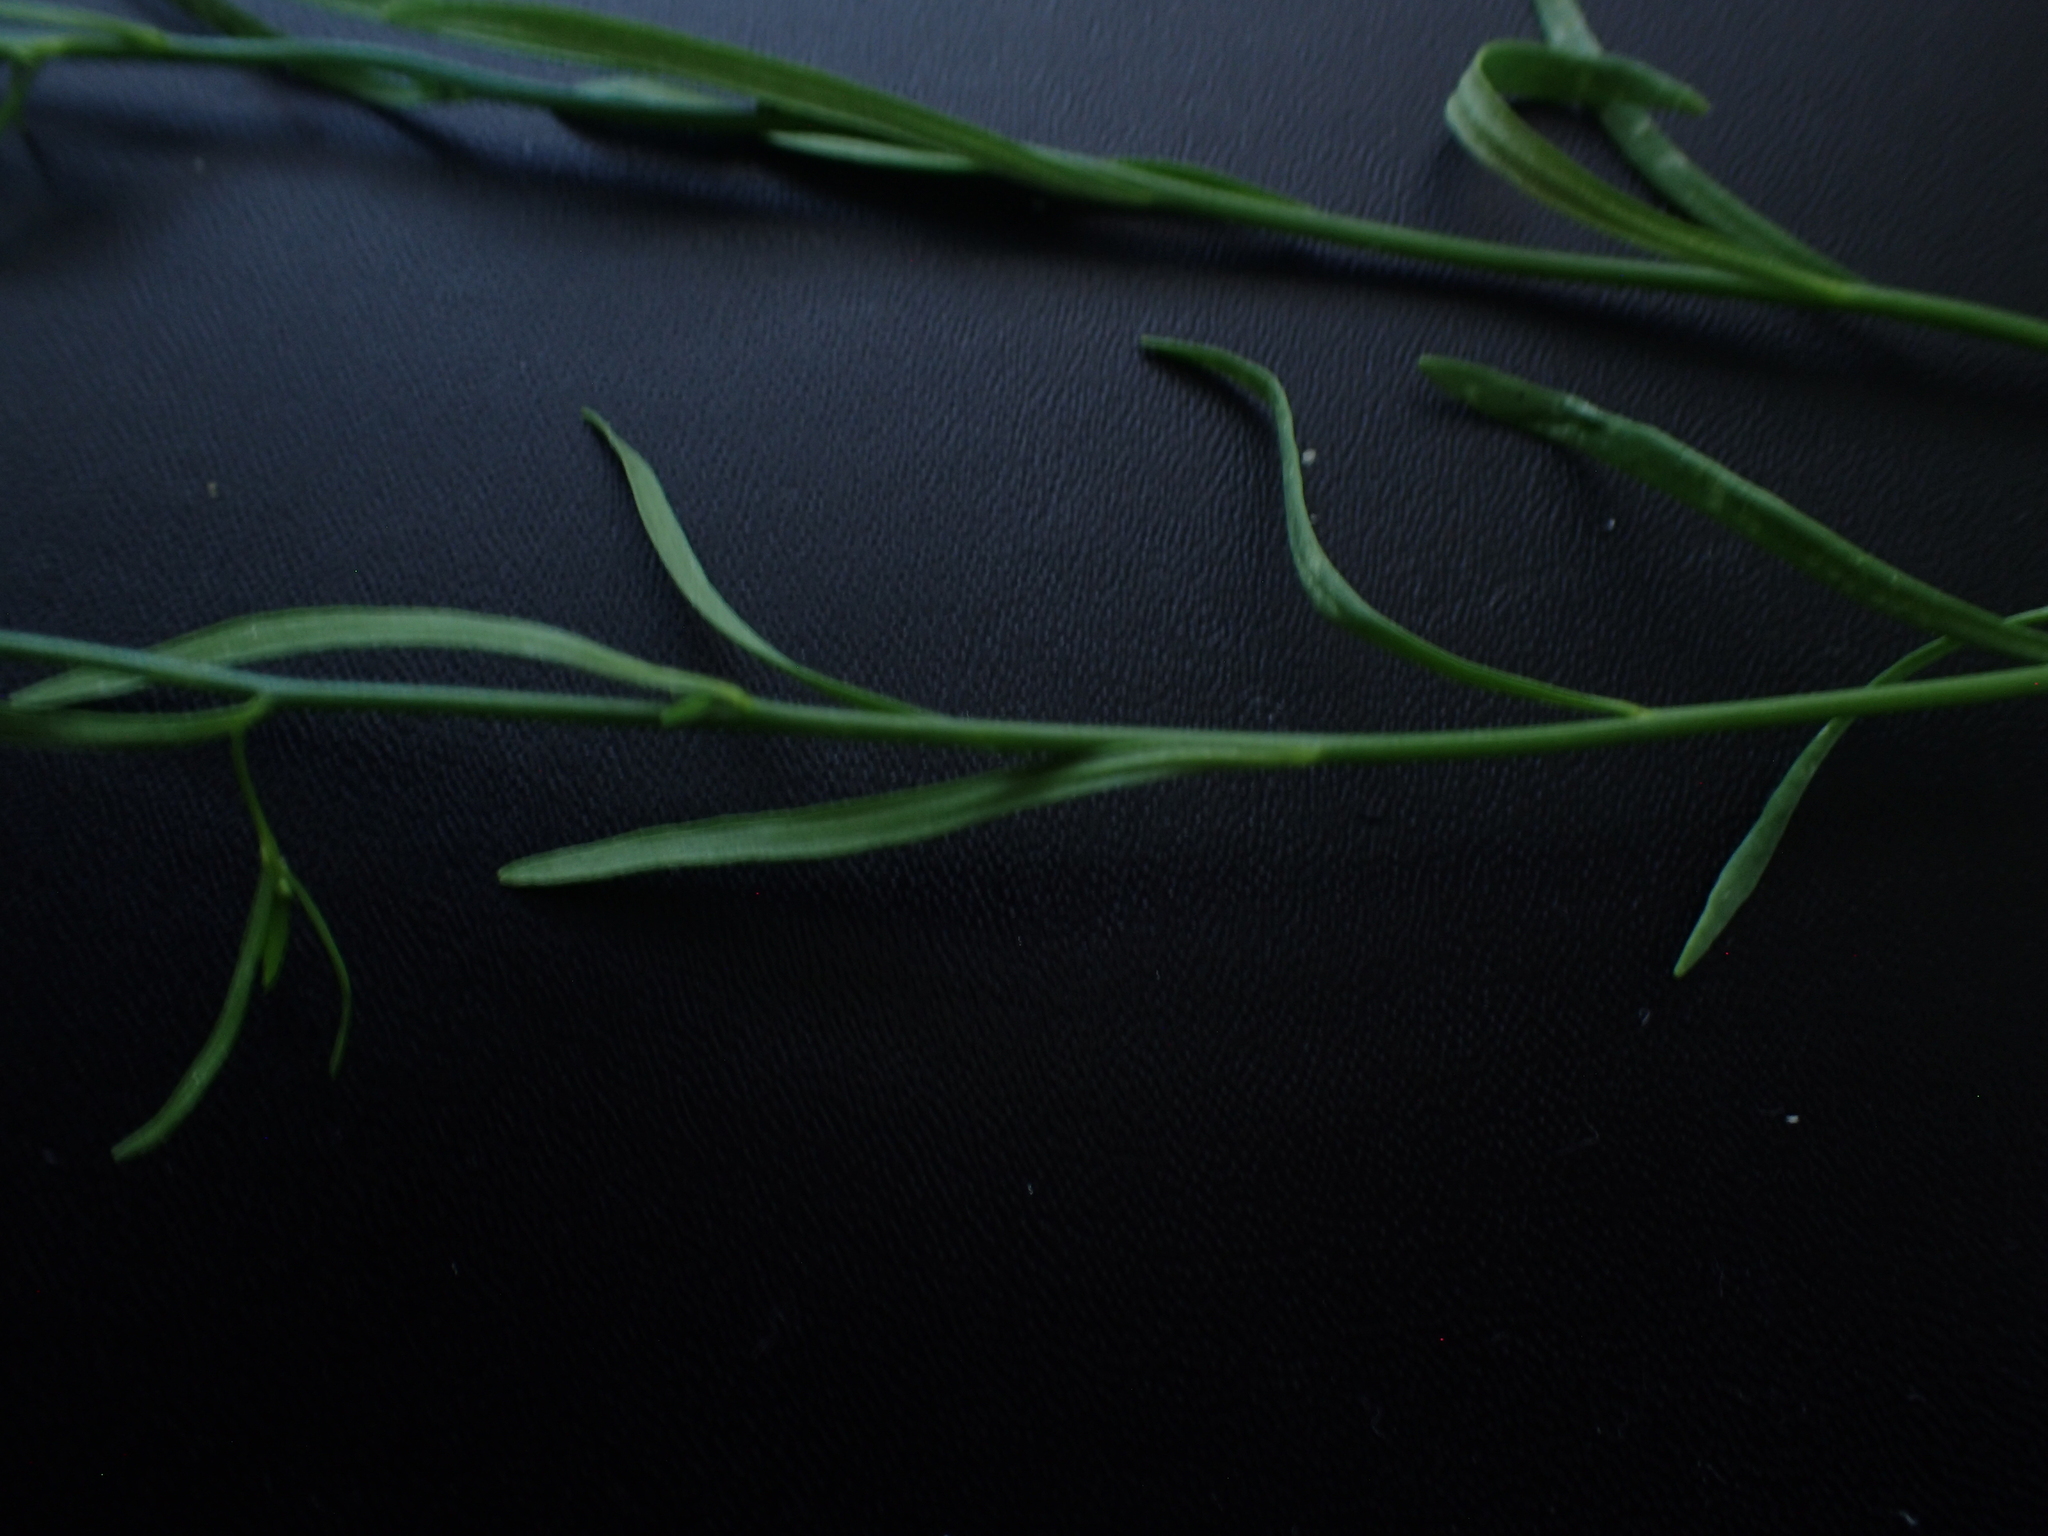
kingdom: Plantae
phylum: Tracheophyta
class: Magnoliopsida
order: Lamiales
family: Plantaginaceae
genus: Nuttallanthus
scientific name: Nuttallanthus canadensis
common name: Blue toadflax
